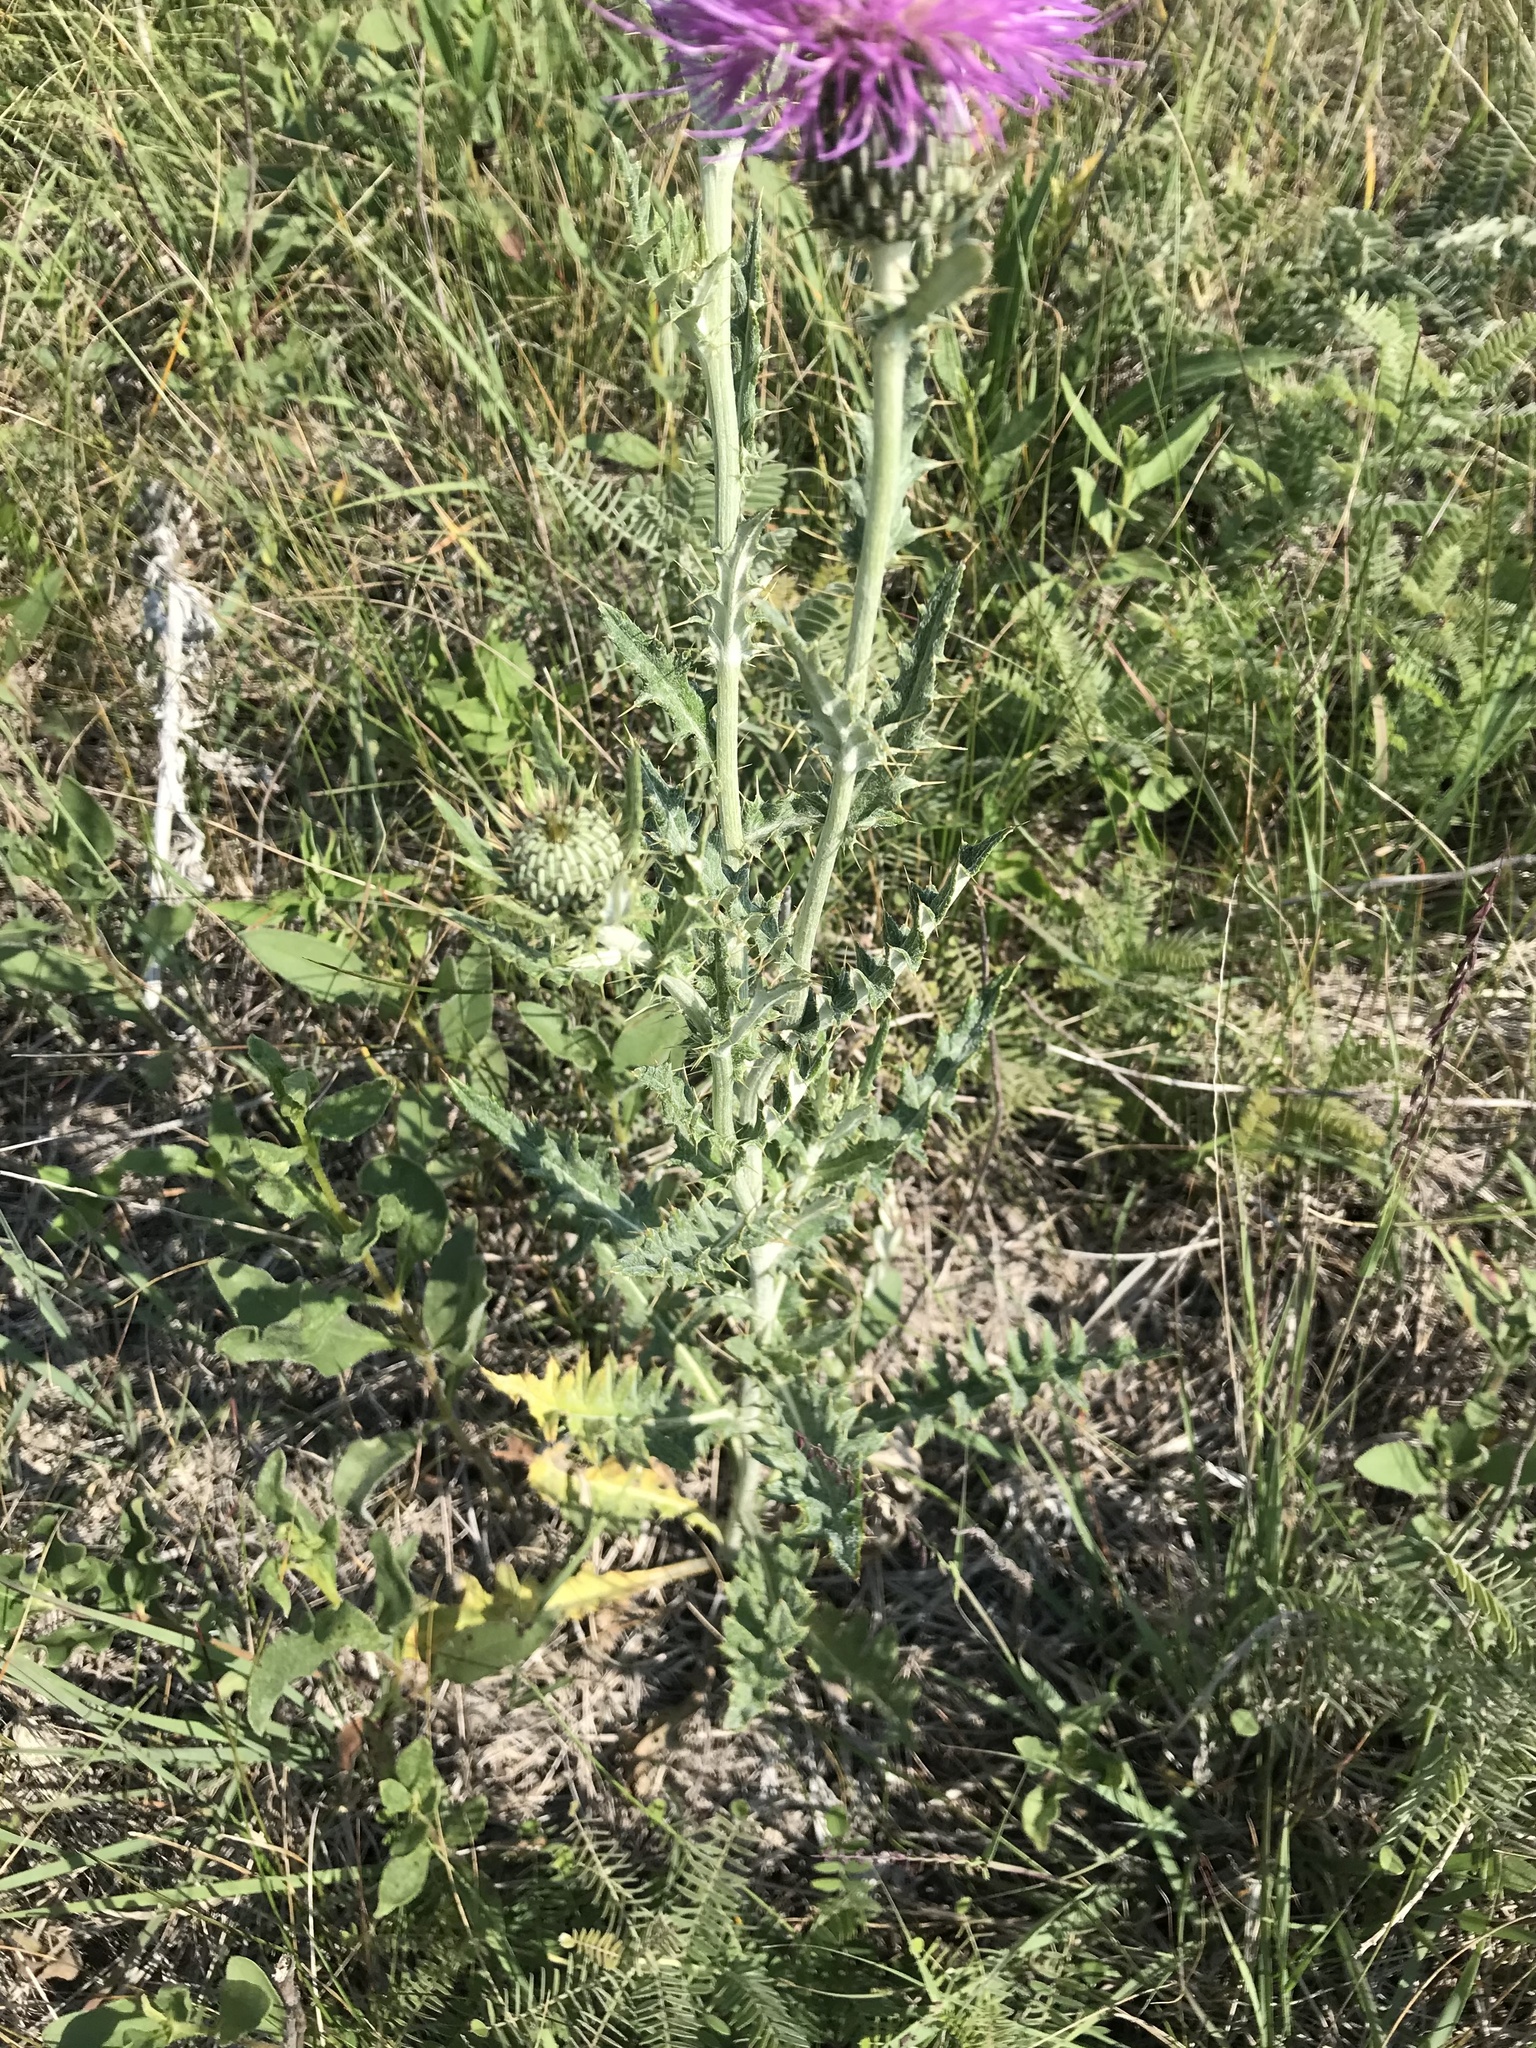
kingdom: Plantae
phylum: Tracheophyta
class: Magnoliopsida
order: Asterales
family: Asteraceae
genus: Cirsium
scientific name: Cirsium flodmanii
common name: Flodman's thistle
